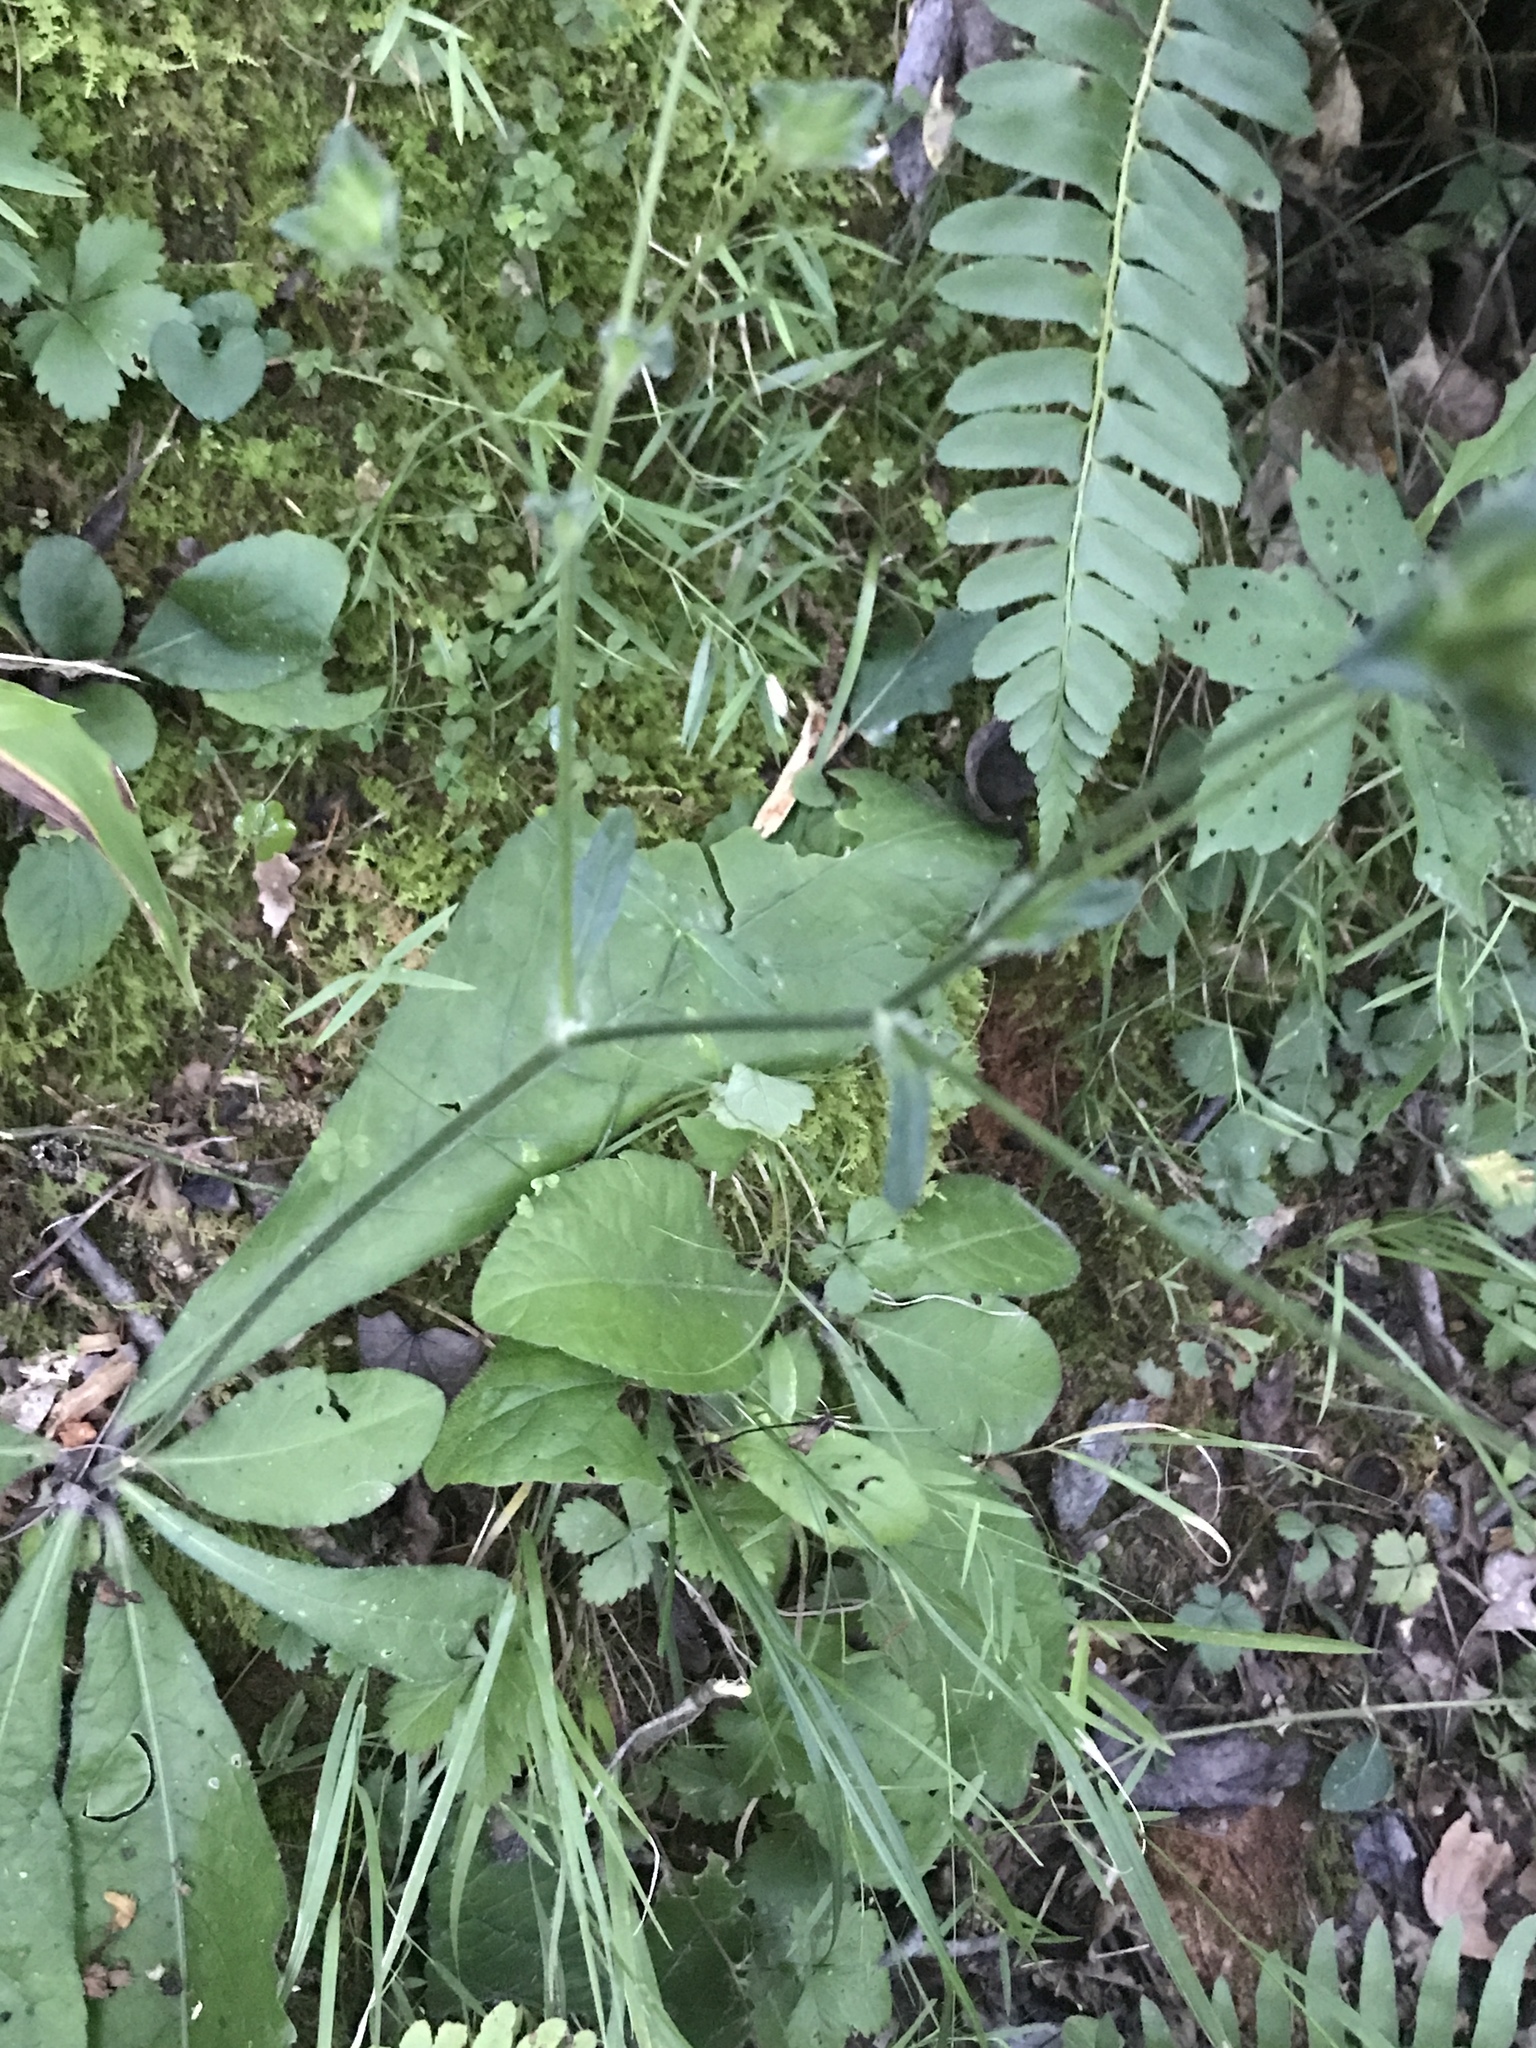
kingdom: Plantae
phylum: Tracheophyta
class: Magnoliopsida
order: Asterales
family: Asteraceae
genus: Elephantopus
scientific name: Elephantopus tomentosus
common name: Tobacco-weed
